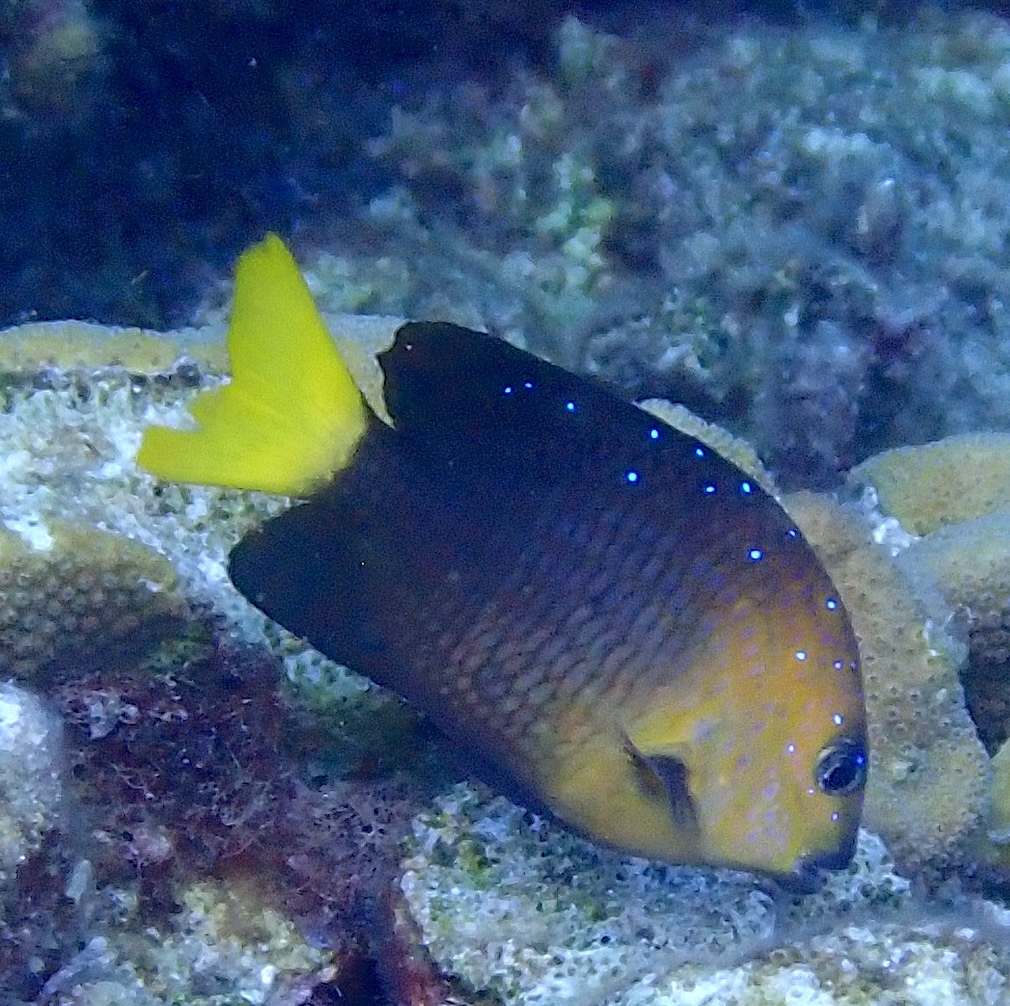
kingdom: Animalia
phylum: Chordata
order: Perciformes
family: Pomacentridae
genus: Microspathodon
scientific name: Microspathodon chrysurus
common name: Yellowtail damselfish
